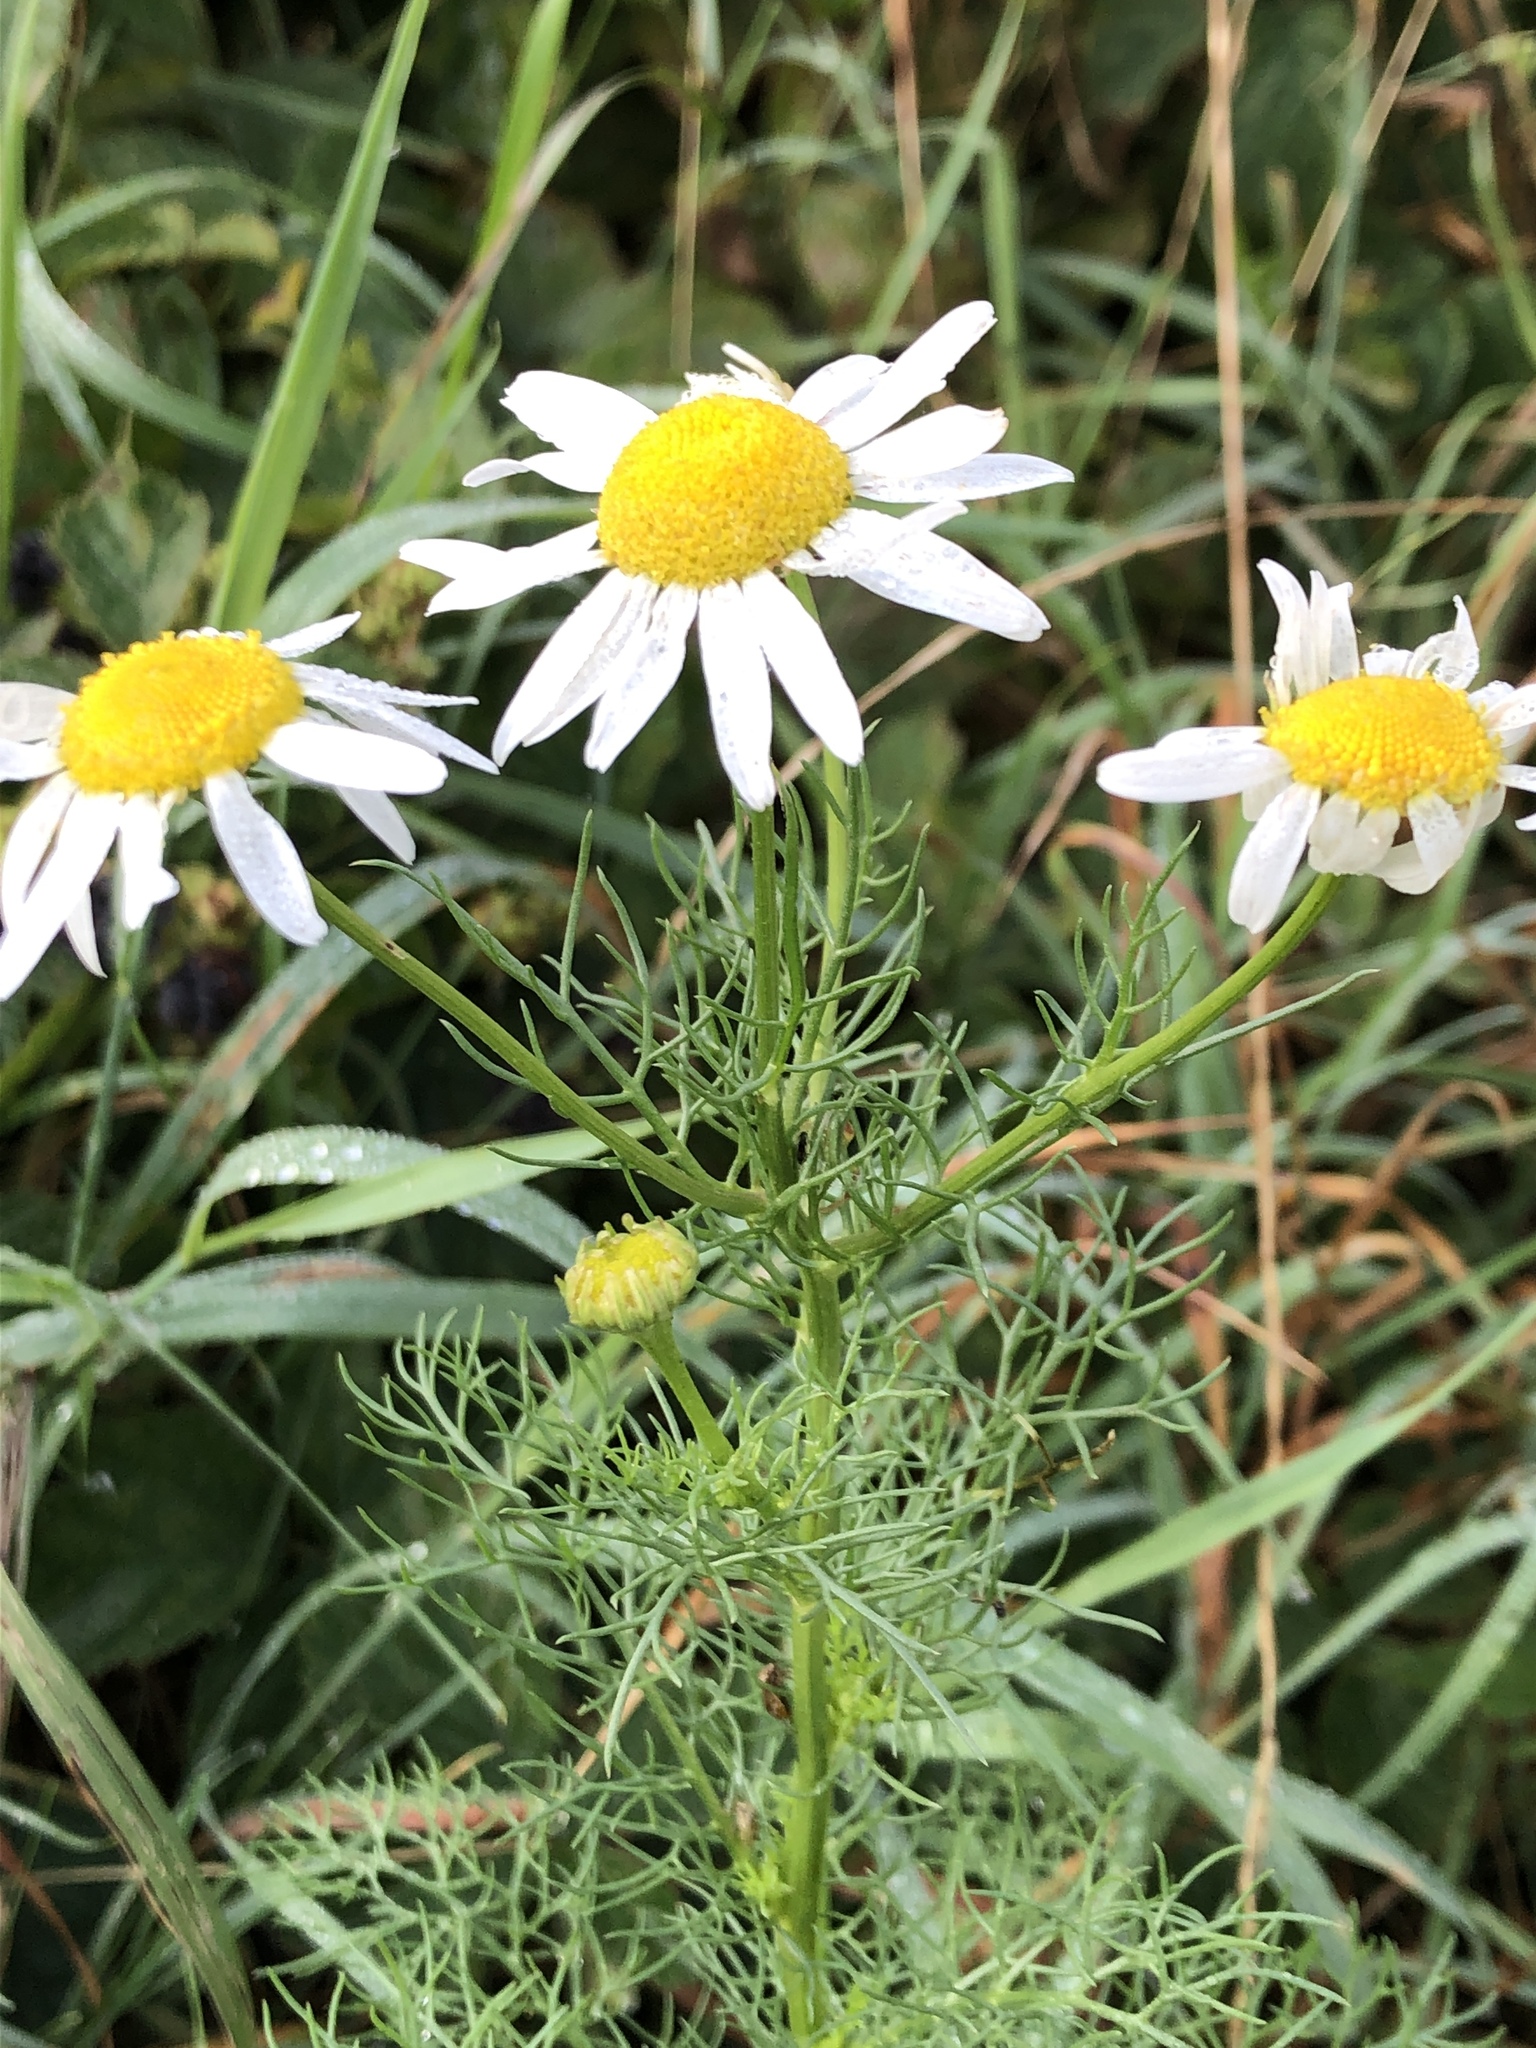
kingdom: Plantae
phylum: Tracheophyta
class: Magnoliopsida
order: Asterales
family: Asteraceae
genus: Tripleurospermum
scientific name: Tripleurospermum inodorum
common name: Scentless mayweed
